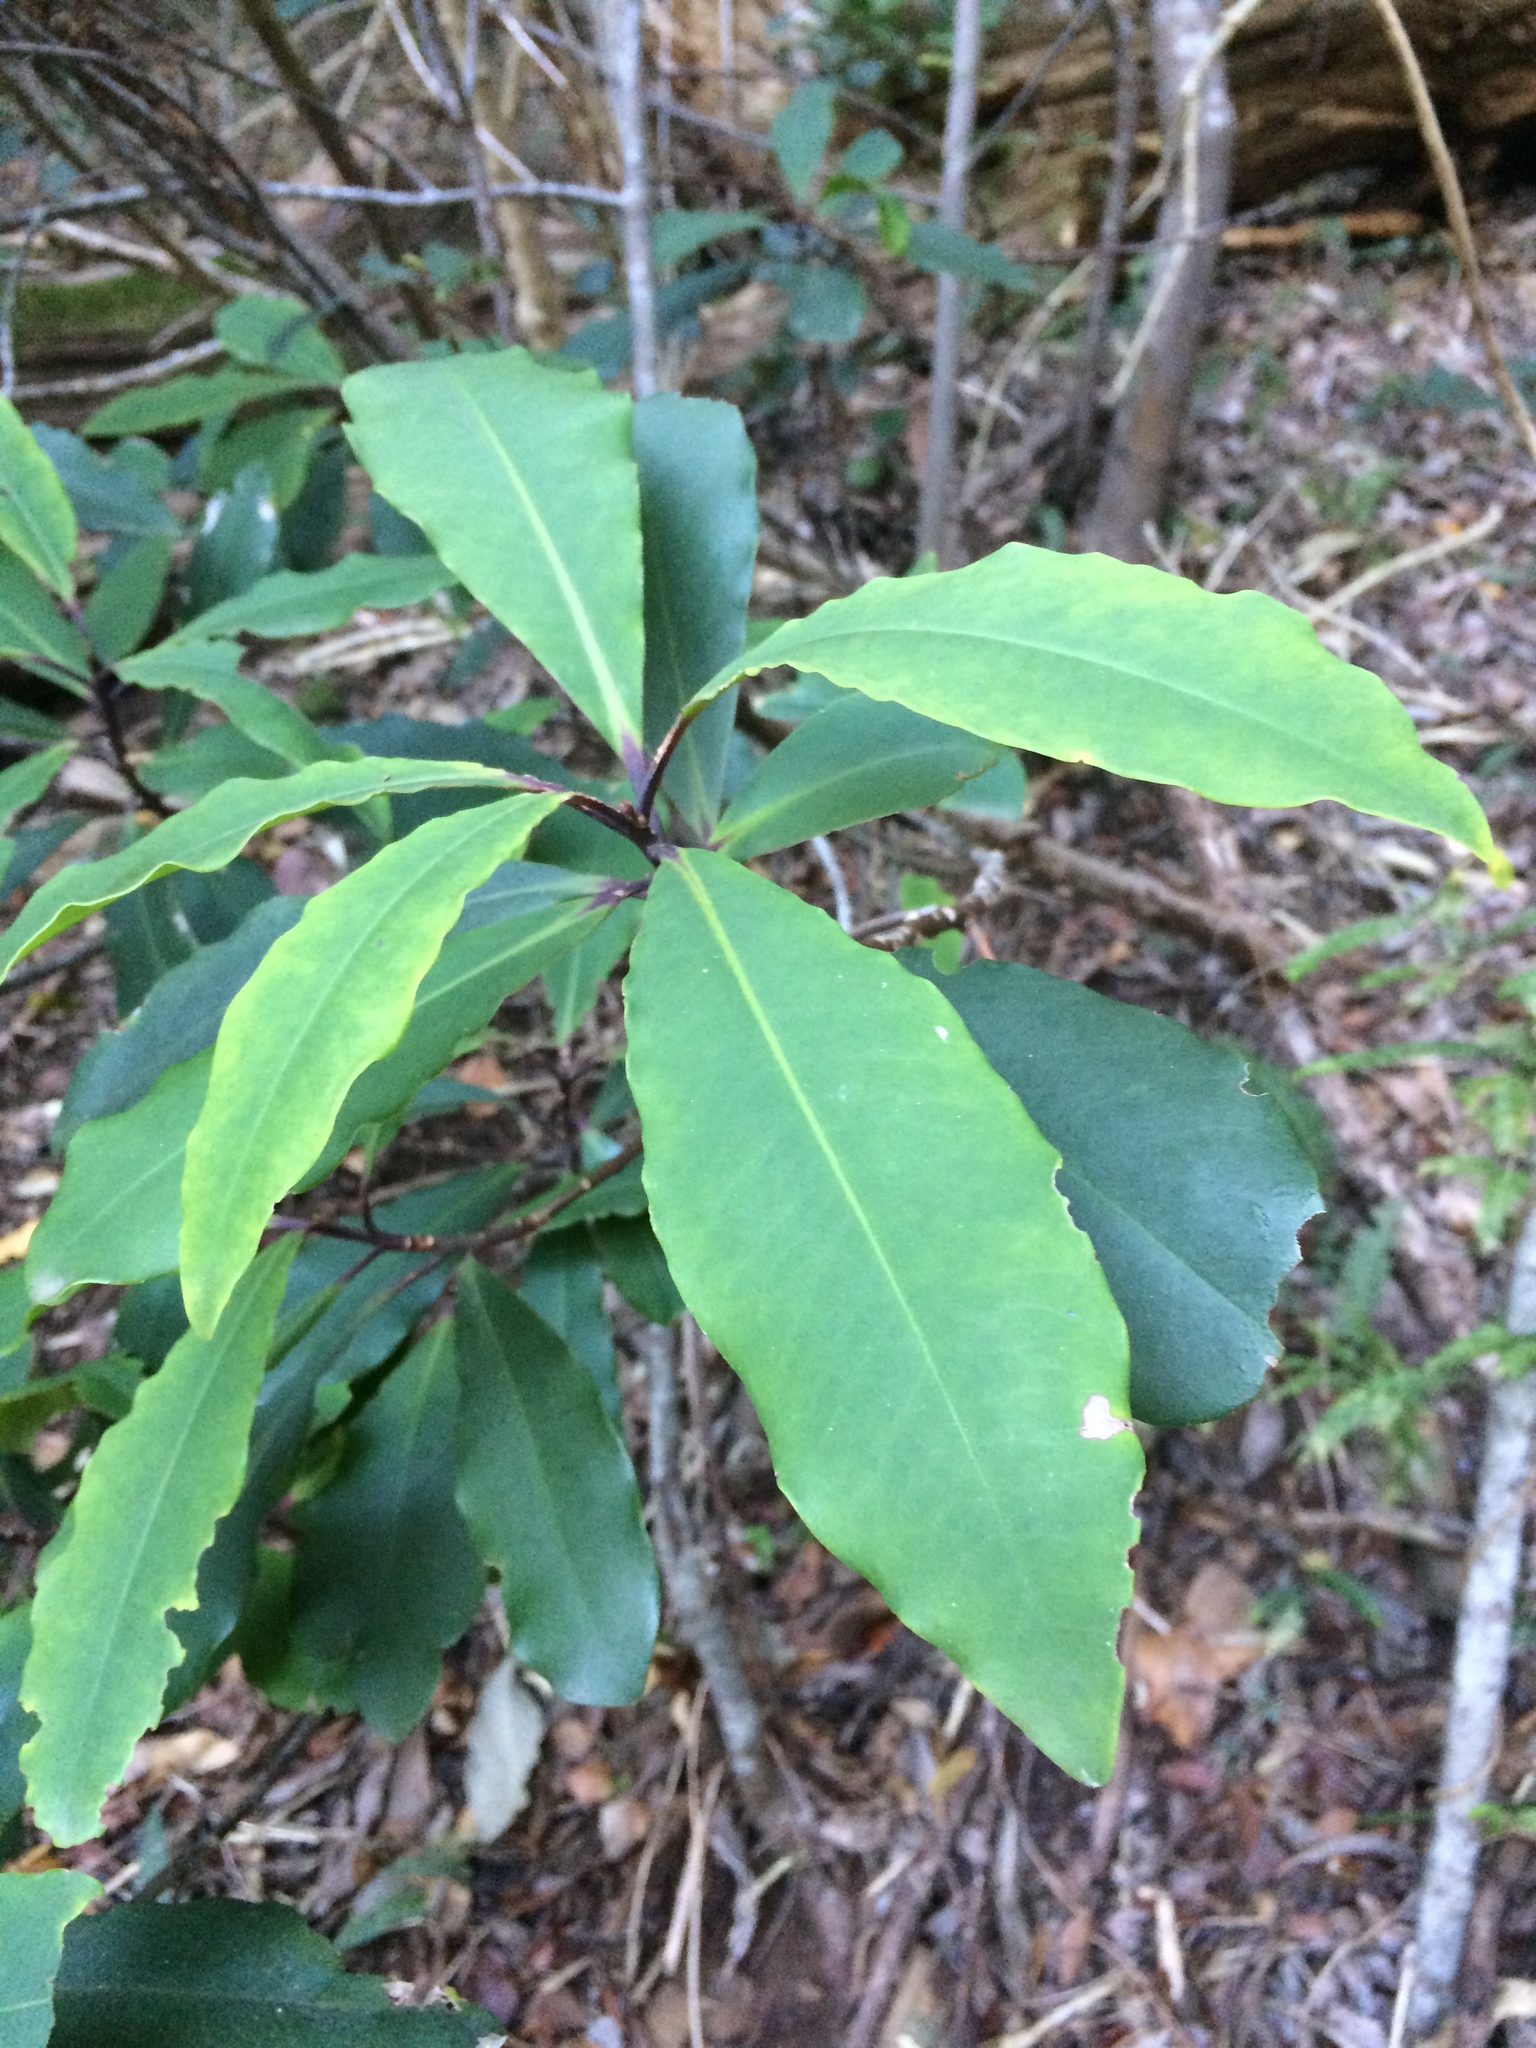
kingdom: Plantae
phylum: Tracheophyta
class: Magnoliopsida
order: Ericales
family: Primulaceae
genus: Myrsine
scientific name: Myrsine melanophloeos
